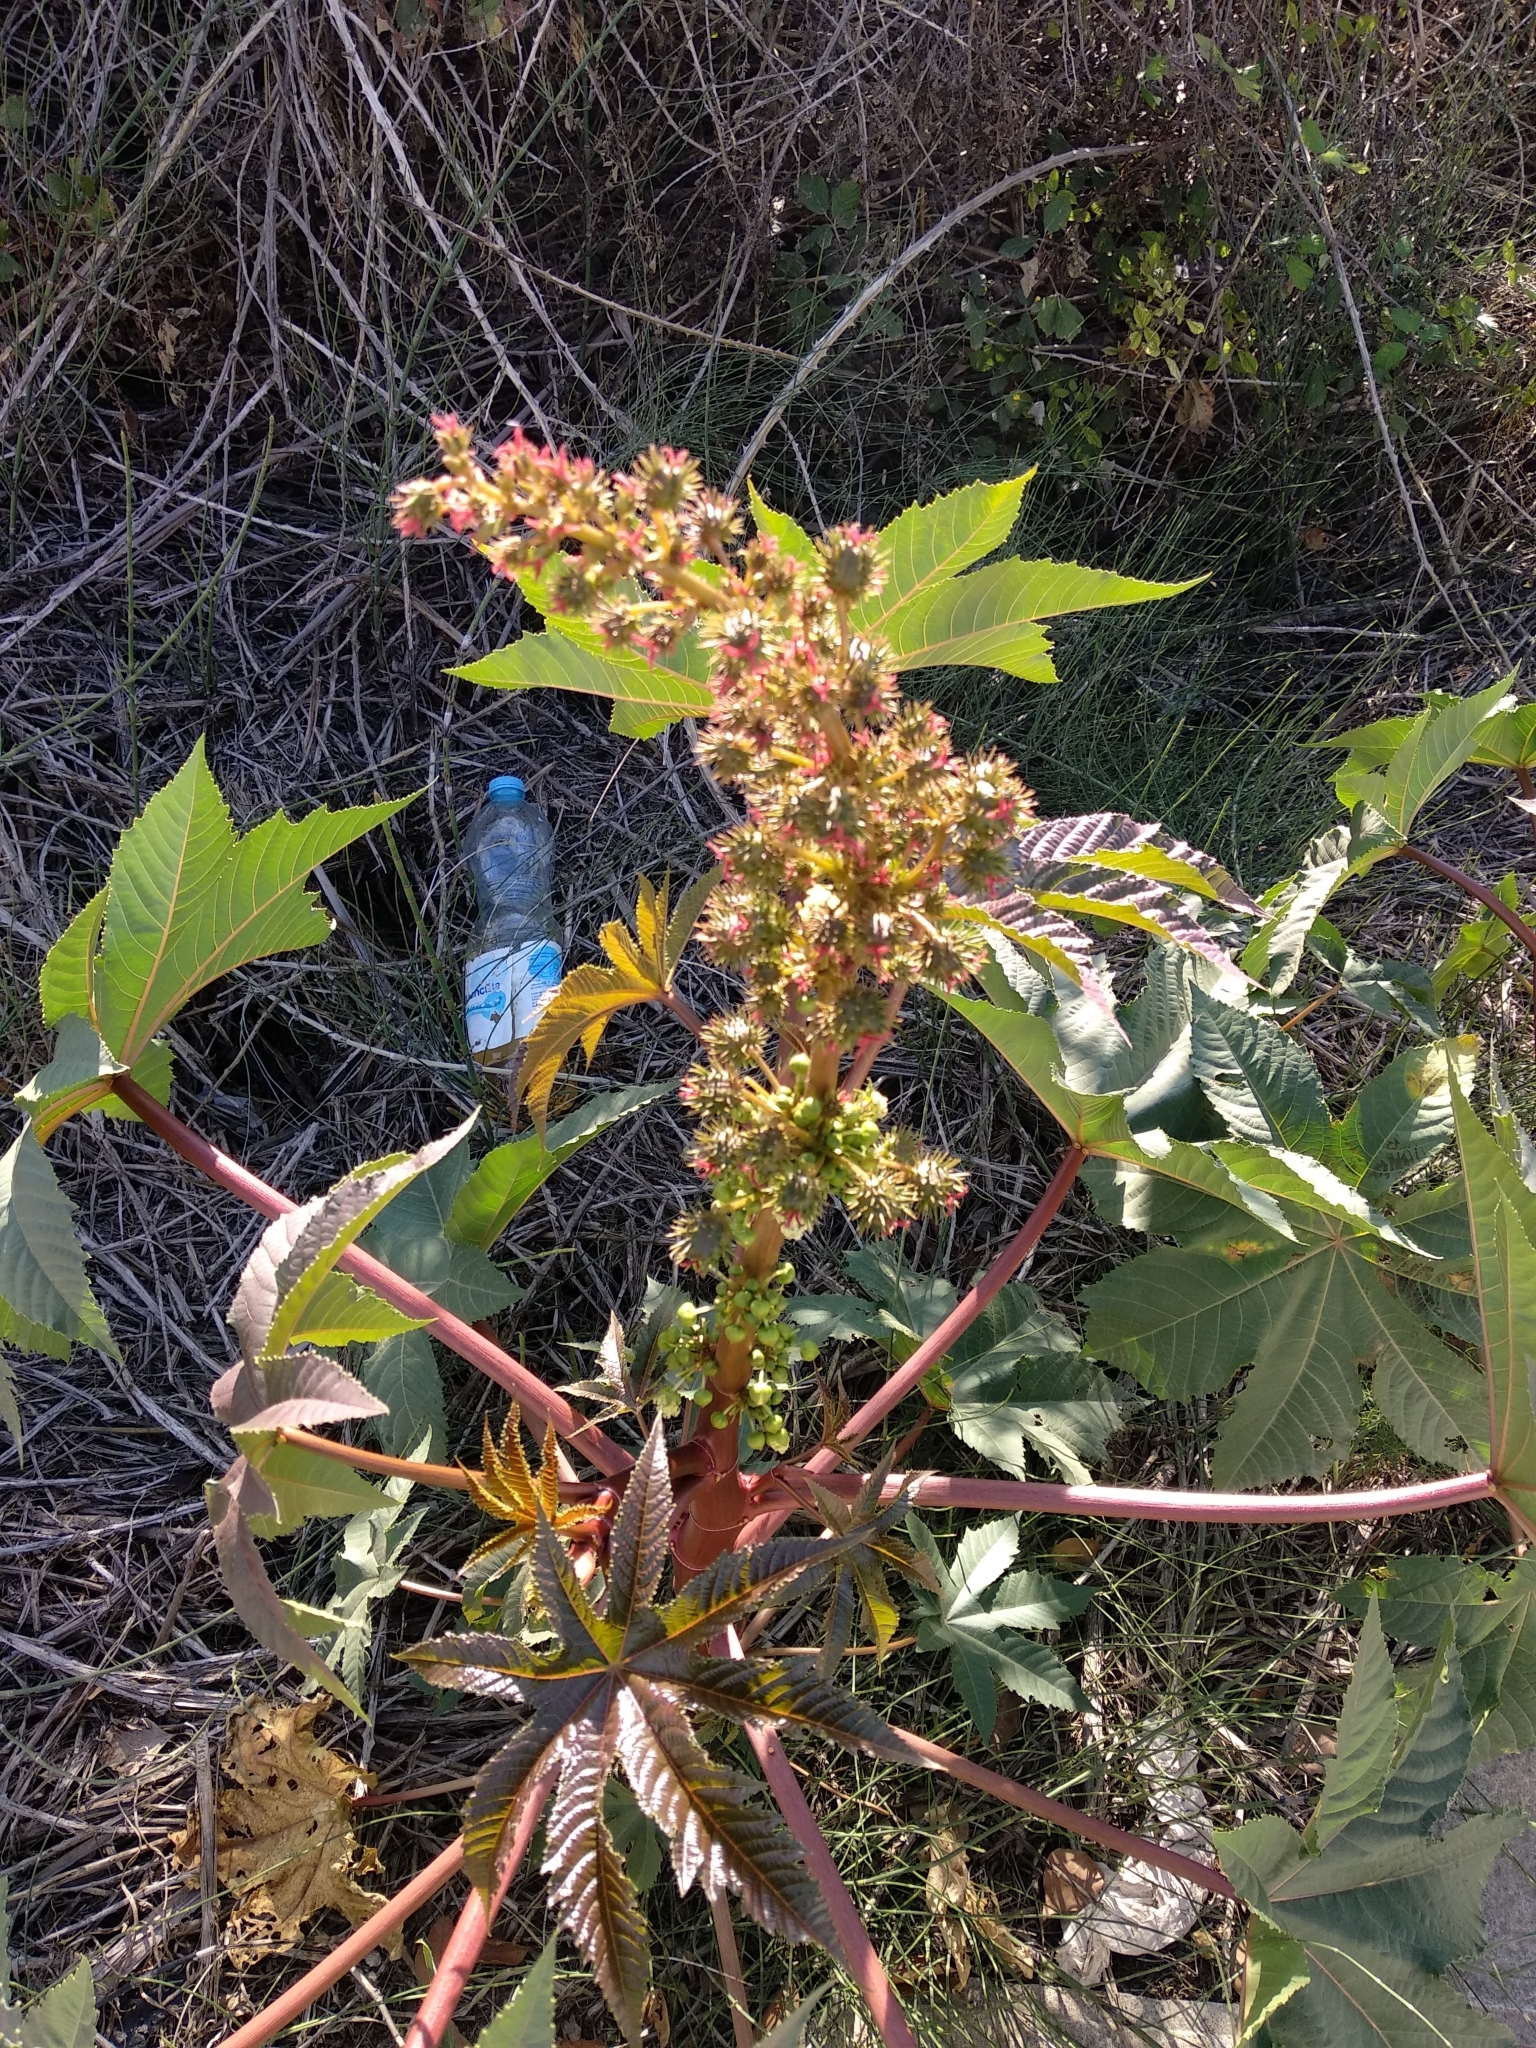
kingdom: Plantae
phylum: Tracheophyta
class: Magnoliopsida
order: Malpighiales
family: Euphorbiaceae
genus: Ricinus
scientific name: Ricinus communis
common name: Castor-oil-plant
